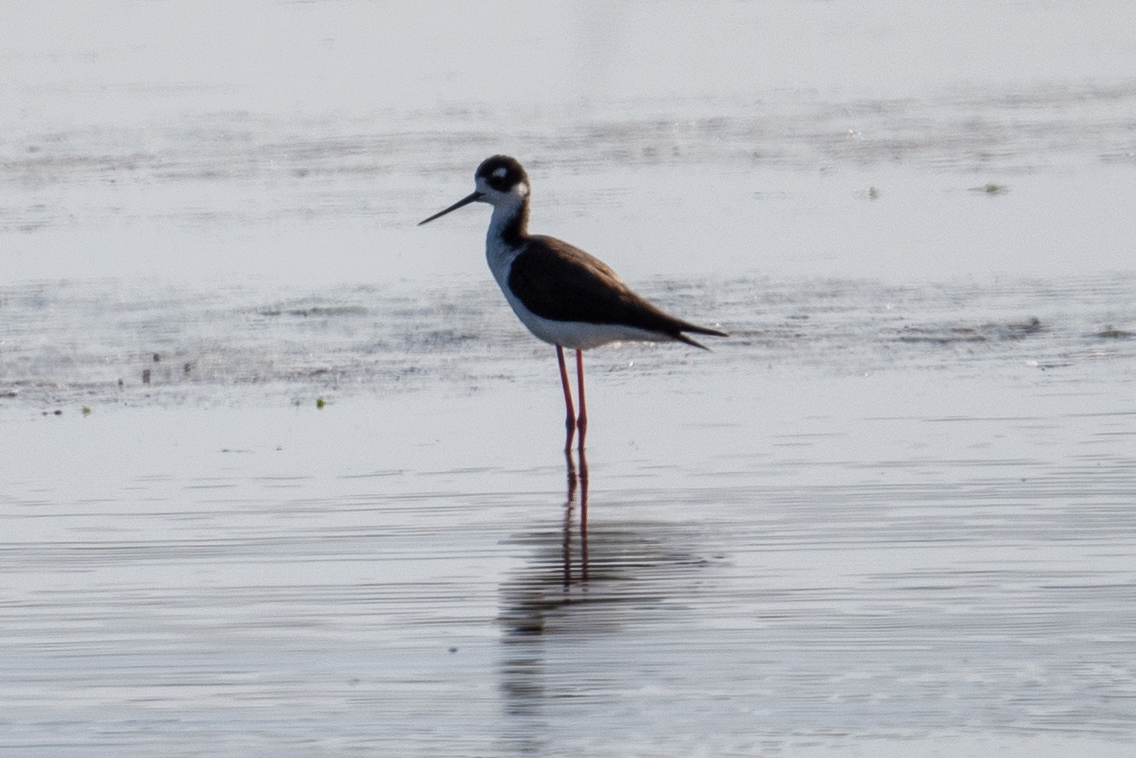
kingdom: Animalia
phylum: Chordata
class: Aves
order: Charadriiformes
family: Recurvirostridae
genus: Himantopus
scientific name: Himantopus mexicanus
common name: Black-necked stilt
